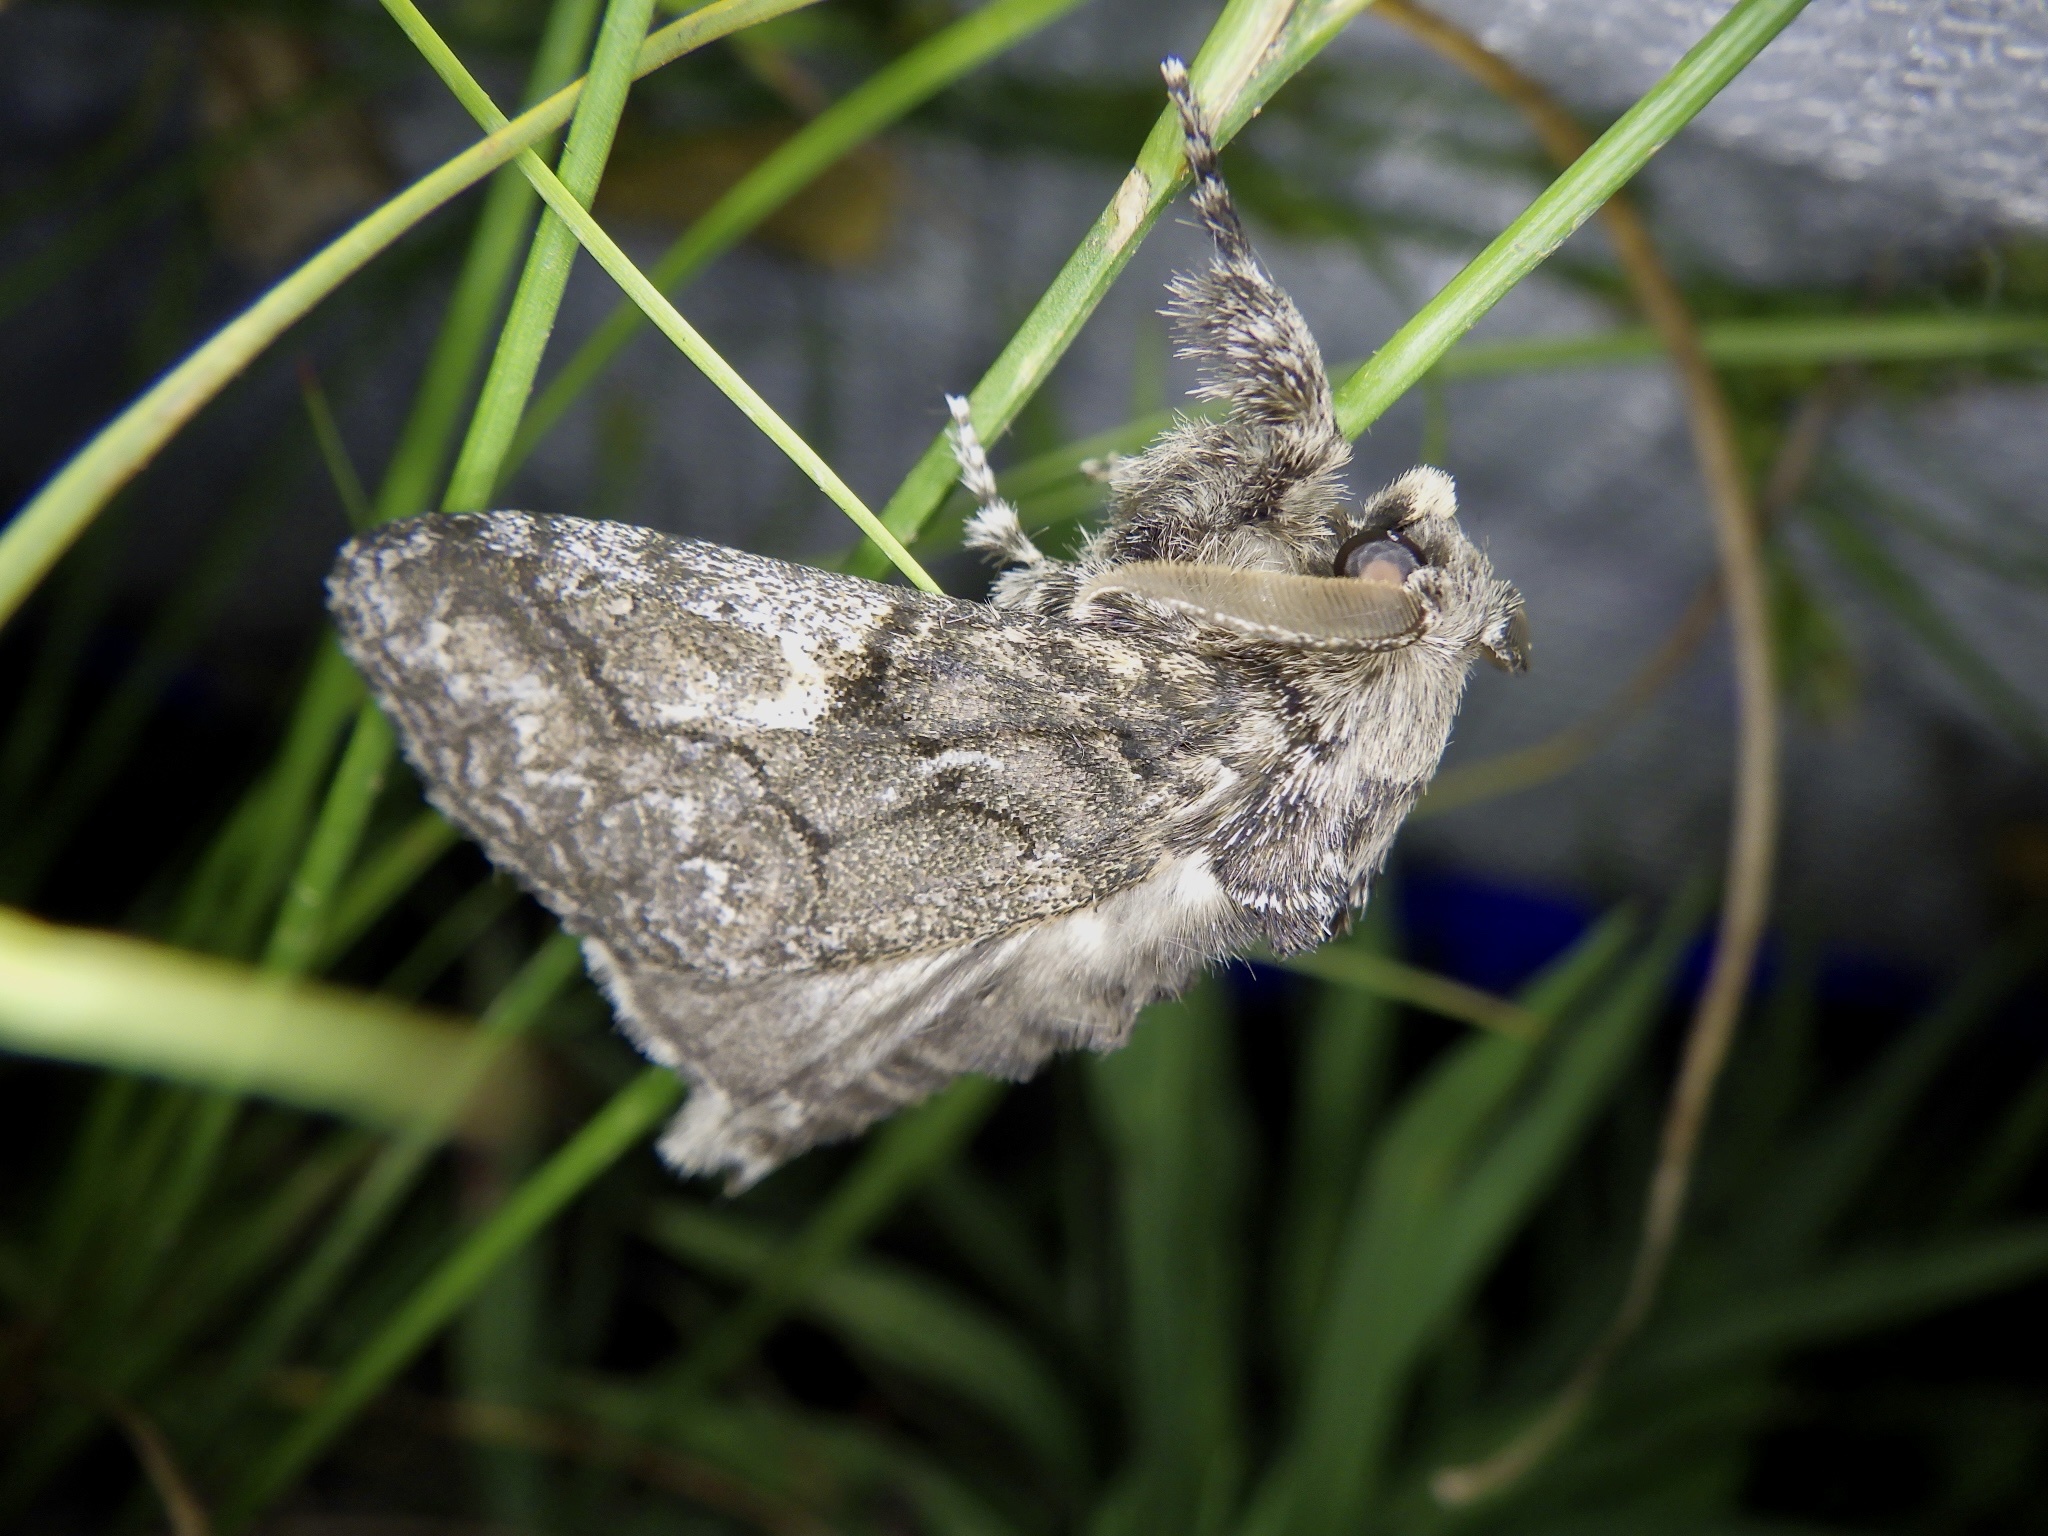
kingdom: Animalia
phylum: Arthropoda
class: Insecta
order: Lepidoptera
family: Erebidae
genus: Calliteara
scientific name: Calliteara conjuncta
